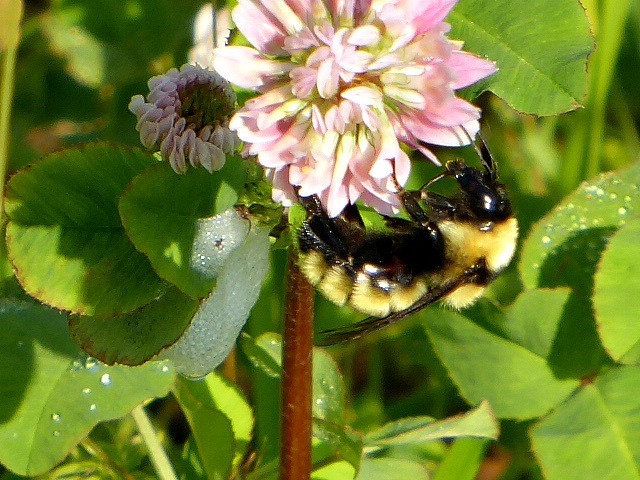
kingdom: Animalia
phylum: Arthropoda
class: Insecta
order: Hymenoptera
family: Apidae
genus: Bombus
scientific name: Bombus fervidus
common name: Yellow bumble bee
